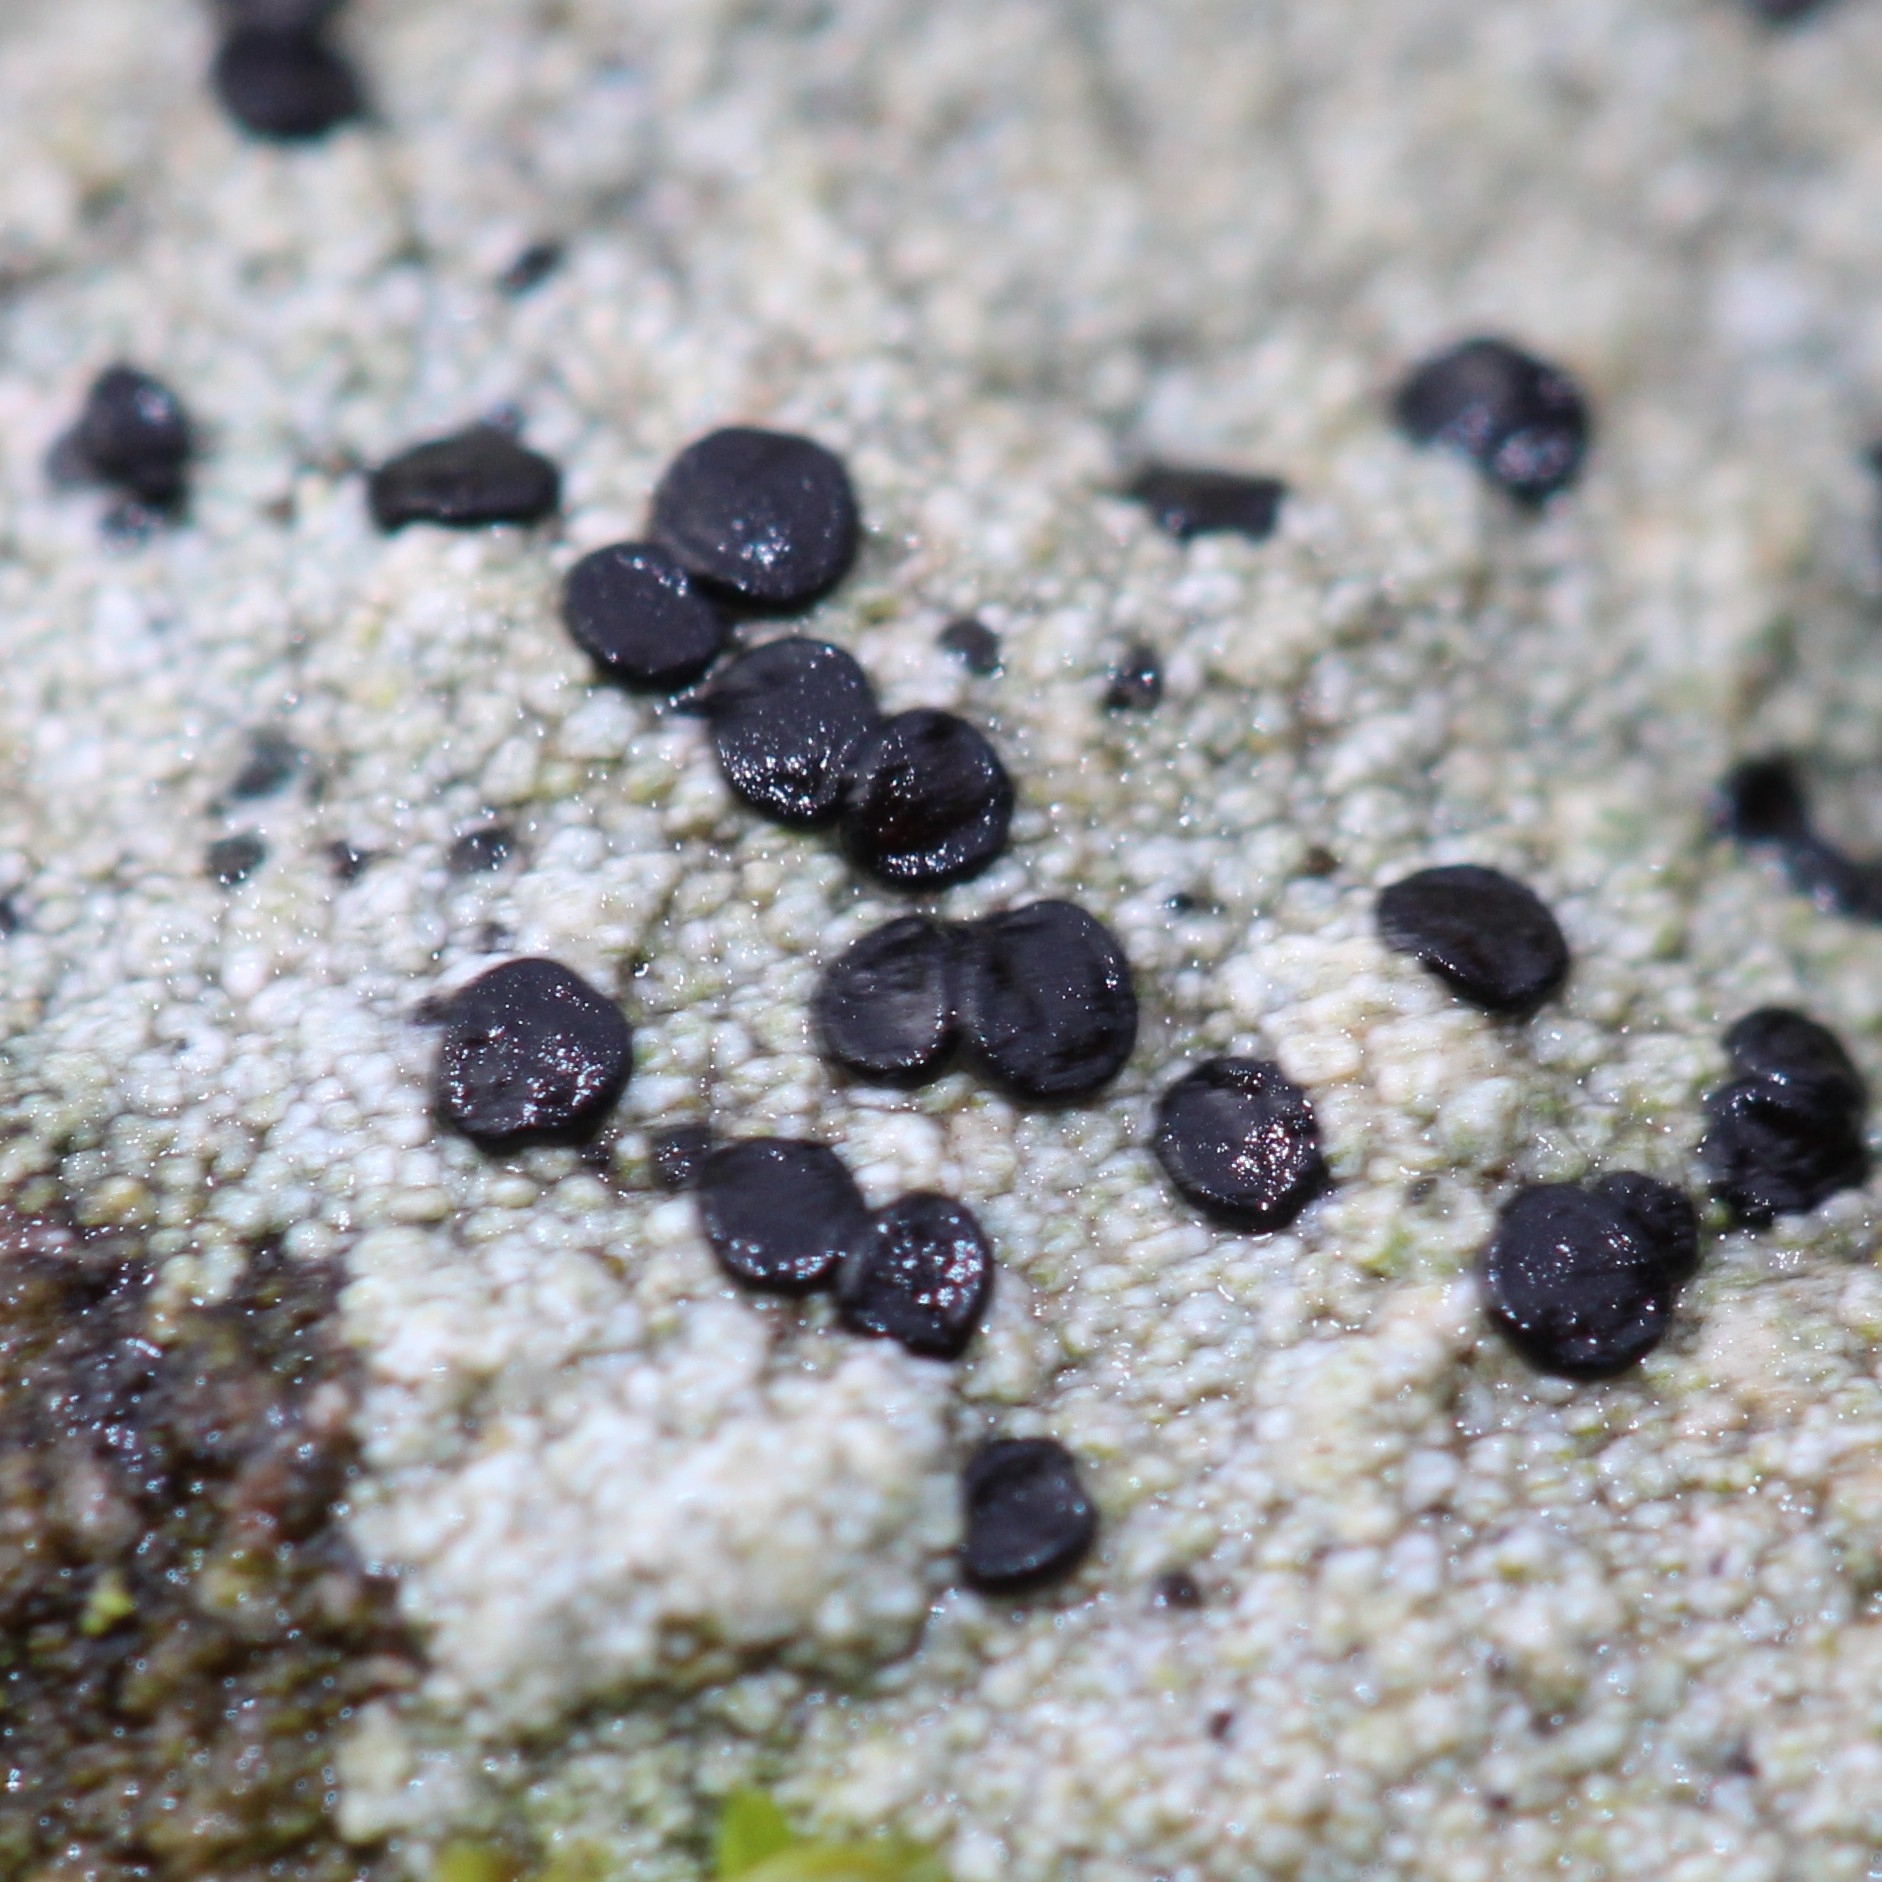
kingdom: Fungi
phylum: Ascomycota
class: Lecanoromycetes
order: Lecanorales
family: Lecanoraceae
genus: Lecidella
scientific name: Lecidella stigmatea
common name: Limestone disc lichen
